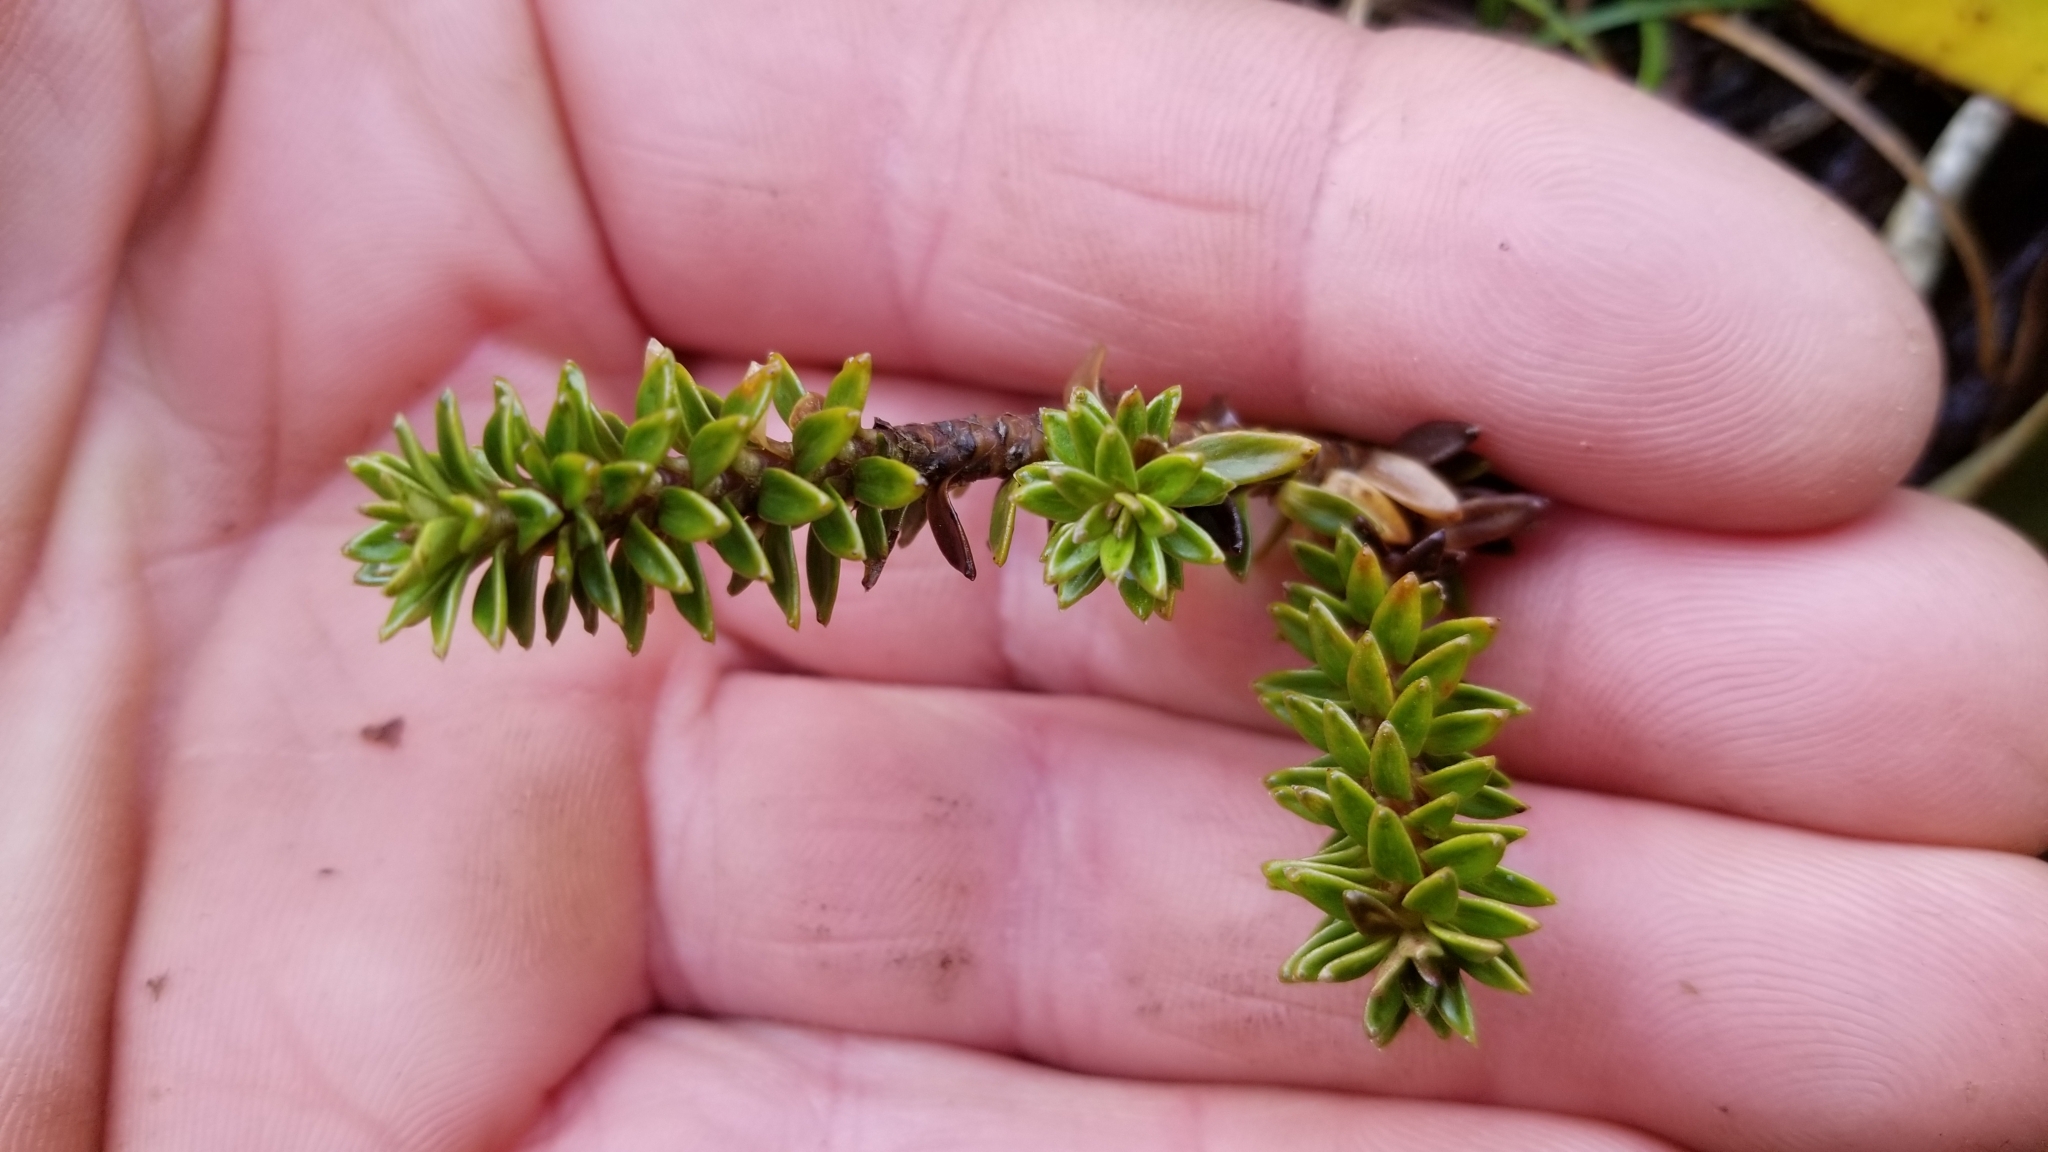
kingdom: Plantae
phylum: Tracheophyta
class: Magnoliopsida
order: Asterales
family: Stylidiaceae
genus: Forstera
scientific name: Forstera mackayi
